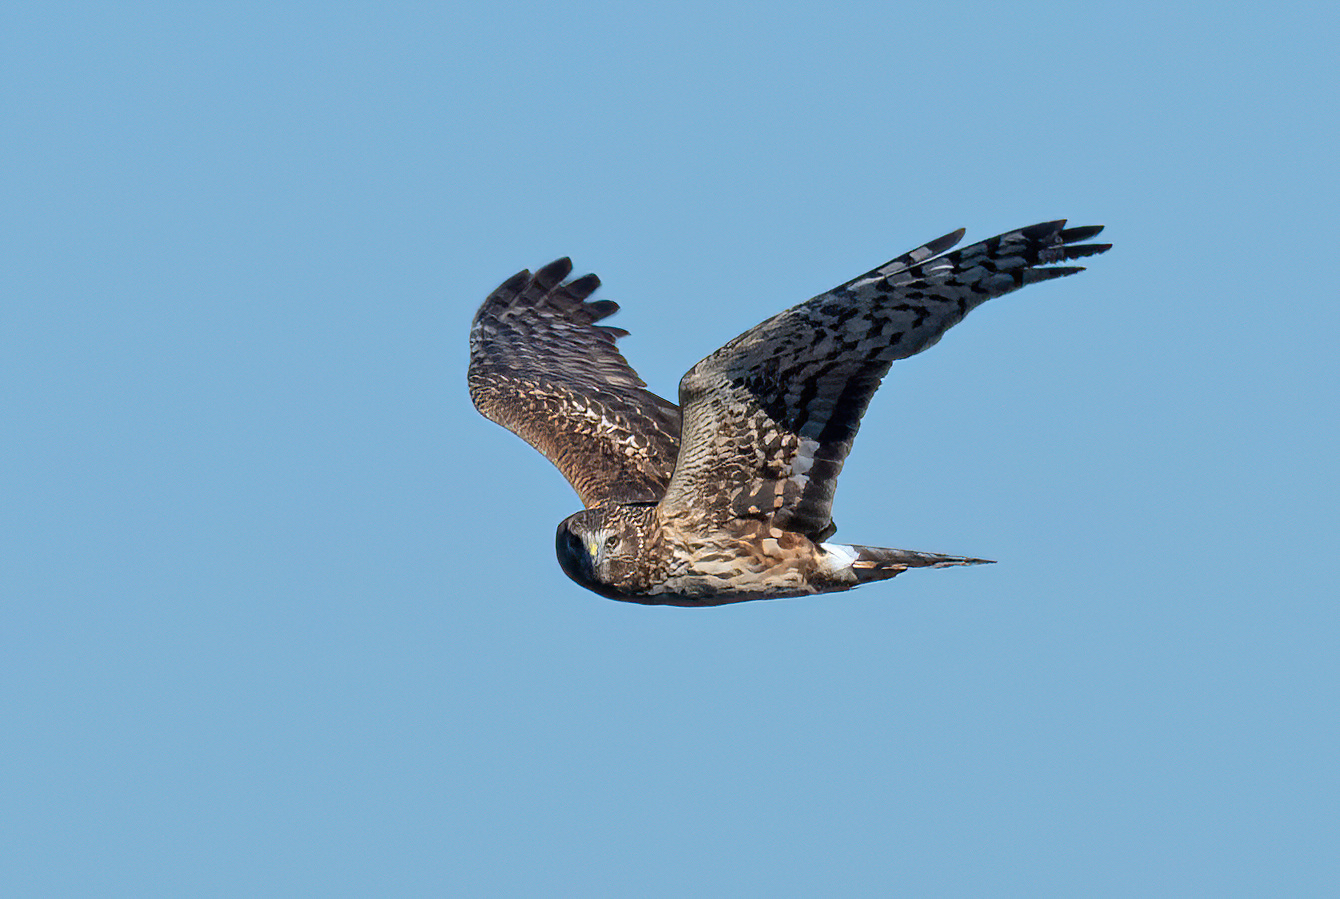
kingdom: Animalia
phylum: Chordata
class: Aves
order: Accipitriformes
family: Accipitridae
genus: Circus
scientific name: Circus cyaneus
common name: Hen harrier
